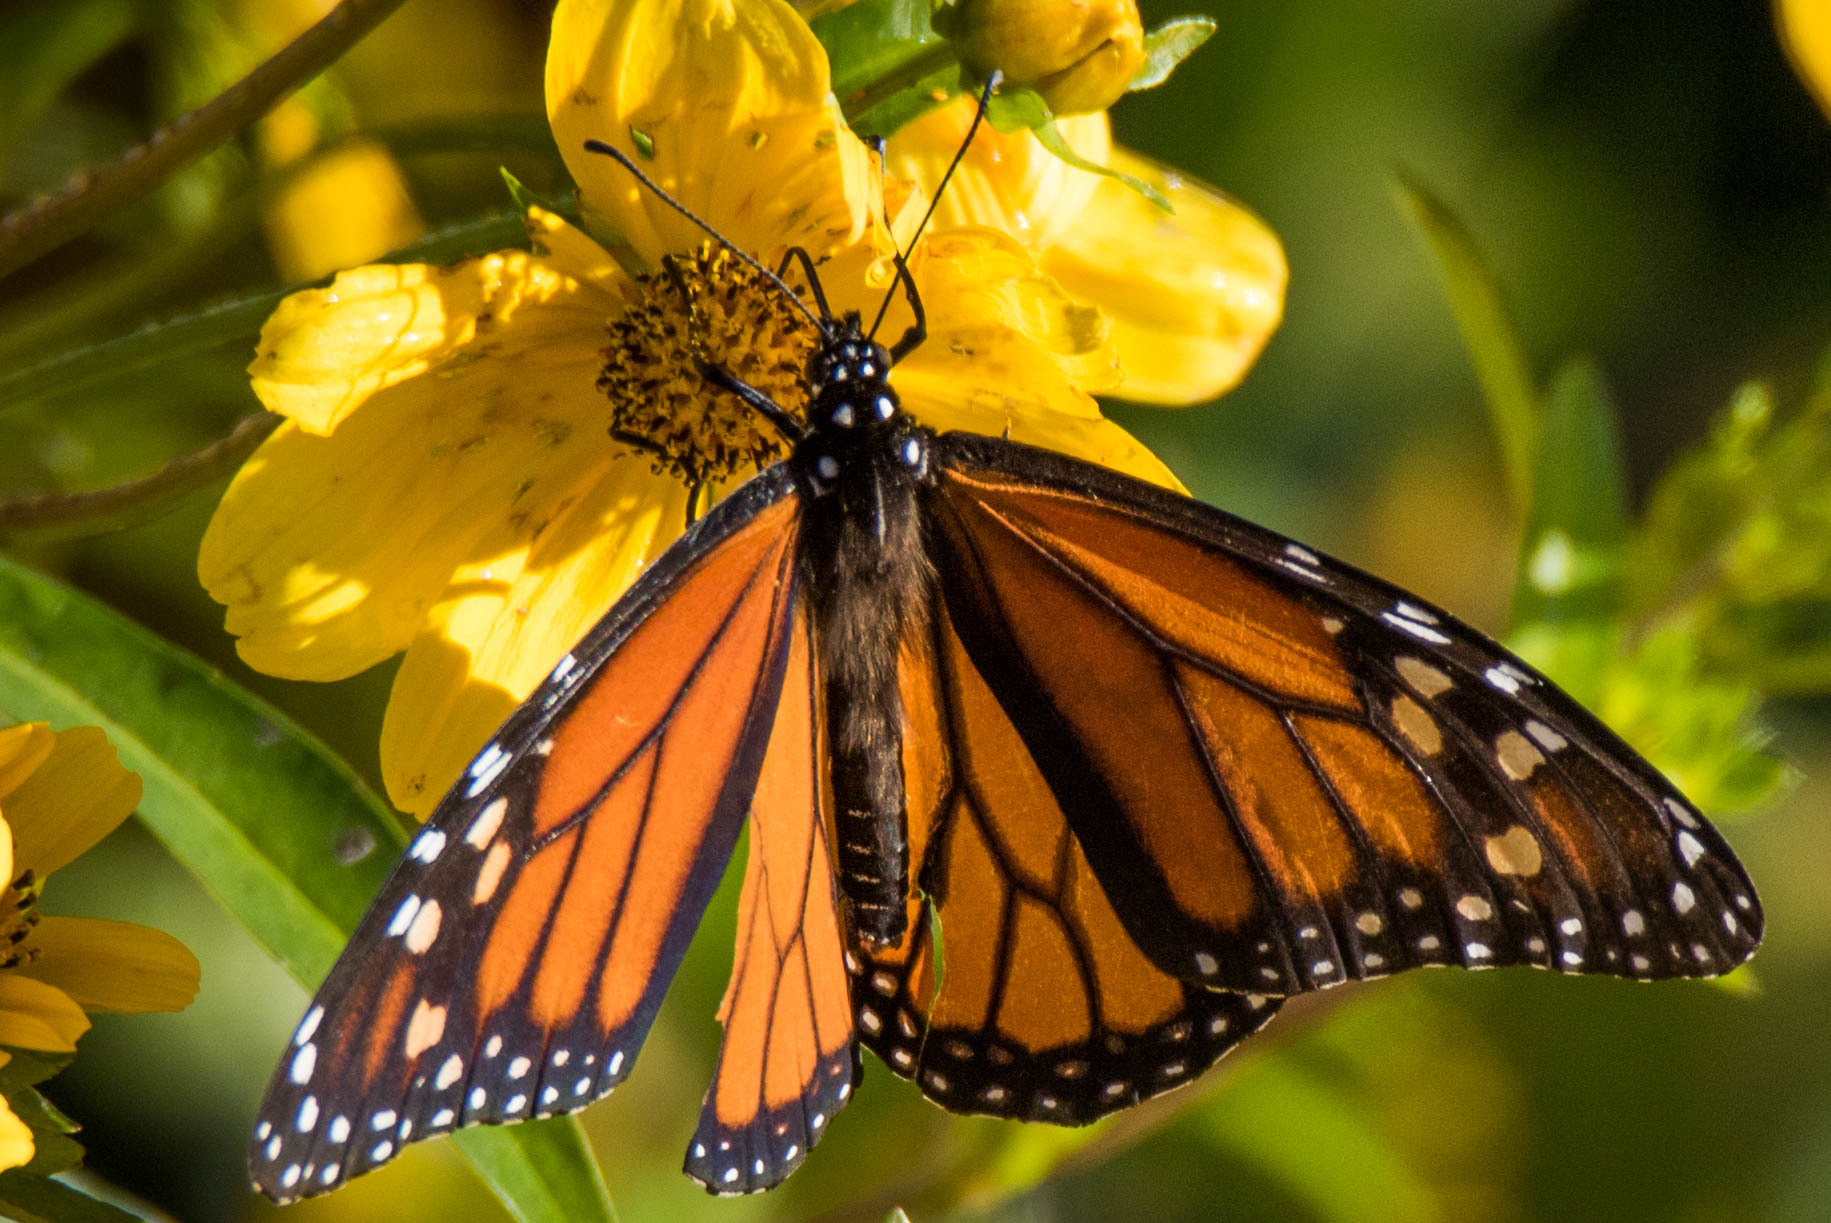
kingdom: Animalia
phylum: Arthropoda
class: Insecta
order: Lepidoptera
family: Nymphalidae
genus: Danaus
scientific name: Danaus plexippus
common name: Monarch
